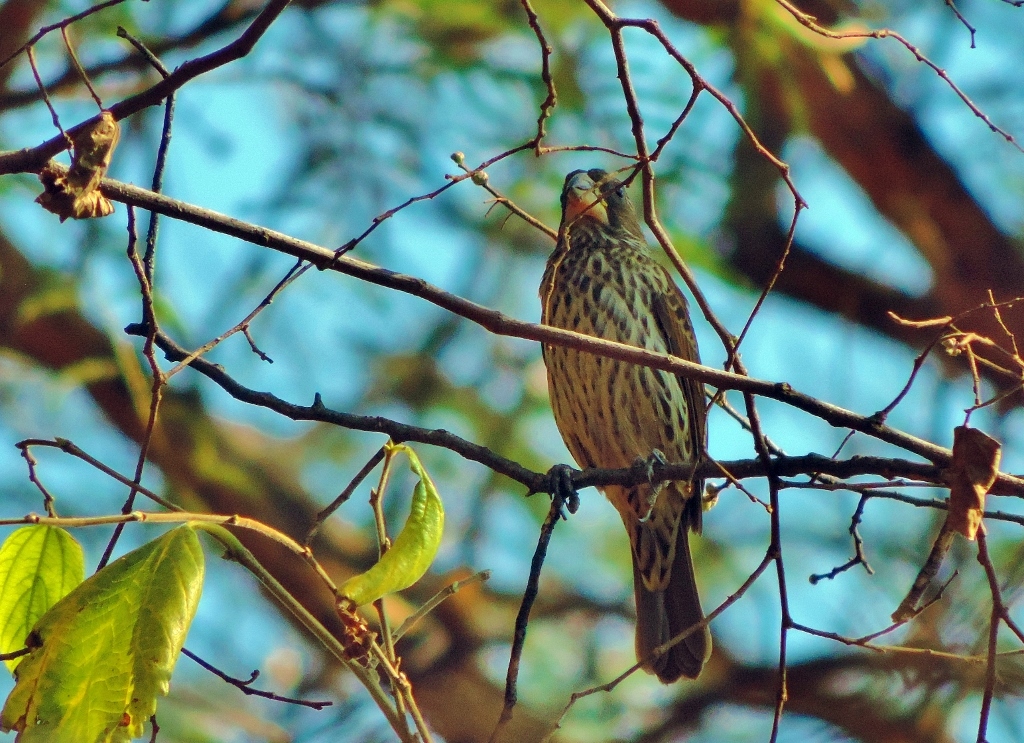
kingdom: Animalia
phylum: Chordata
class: Aves
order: Passeriformes
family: Ploceidae
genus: Amblyospiza
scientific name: Amblyospiza albifrons
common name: Thick-billed weaver
